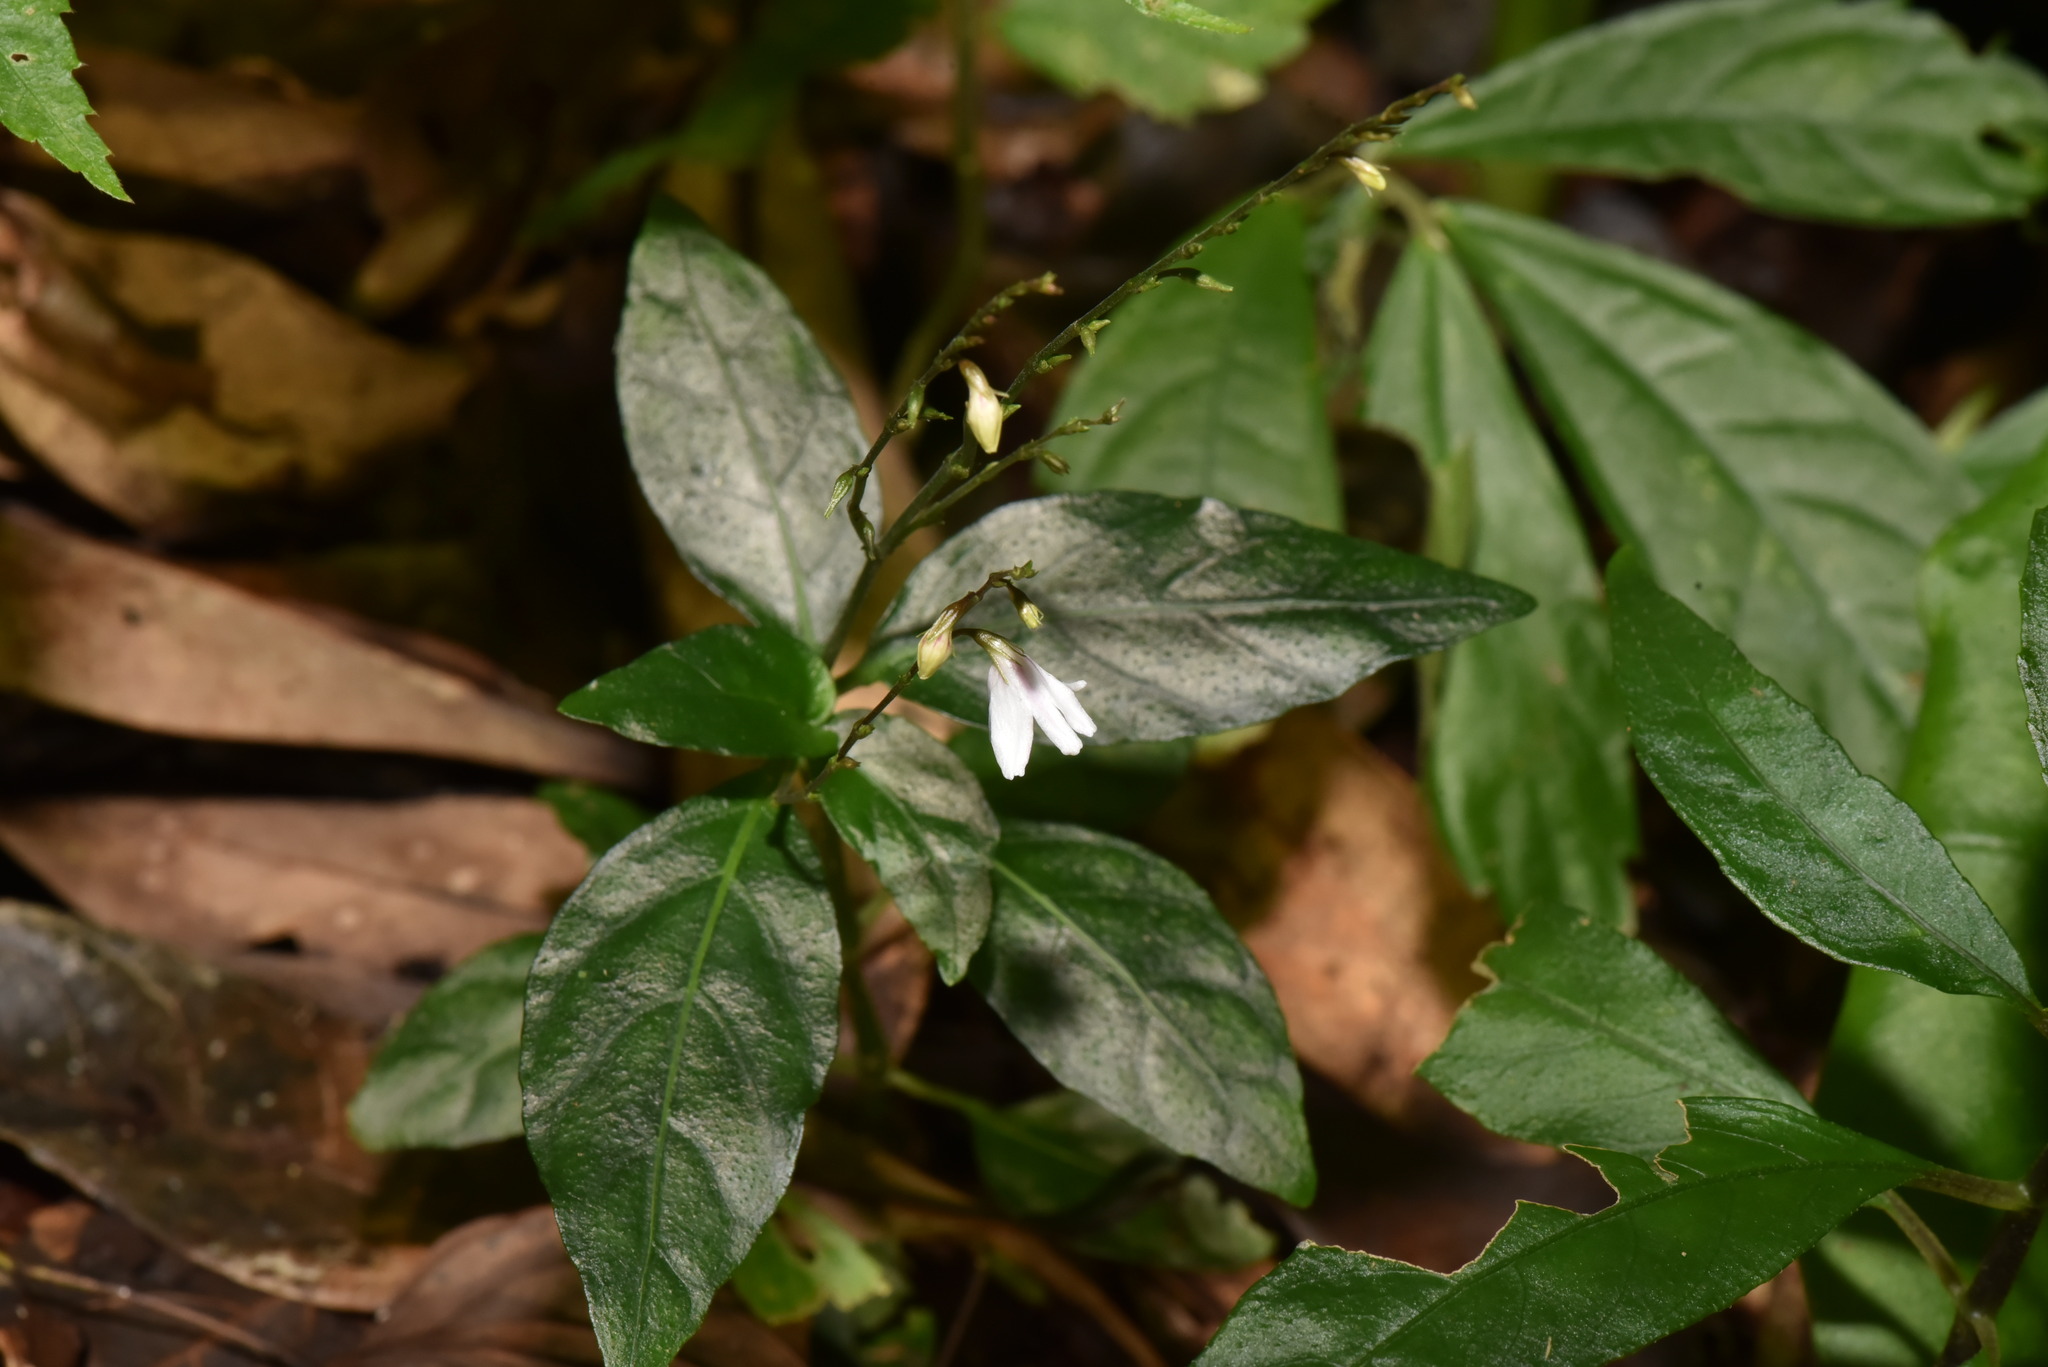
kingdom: Plantae
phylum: Tracheophyta
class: Magnoliopsida
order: Lamiales
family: Acanthaceae
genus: Codonacanthus
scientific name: Codonacanthus pauciflorus
